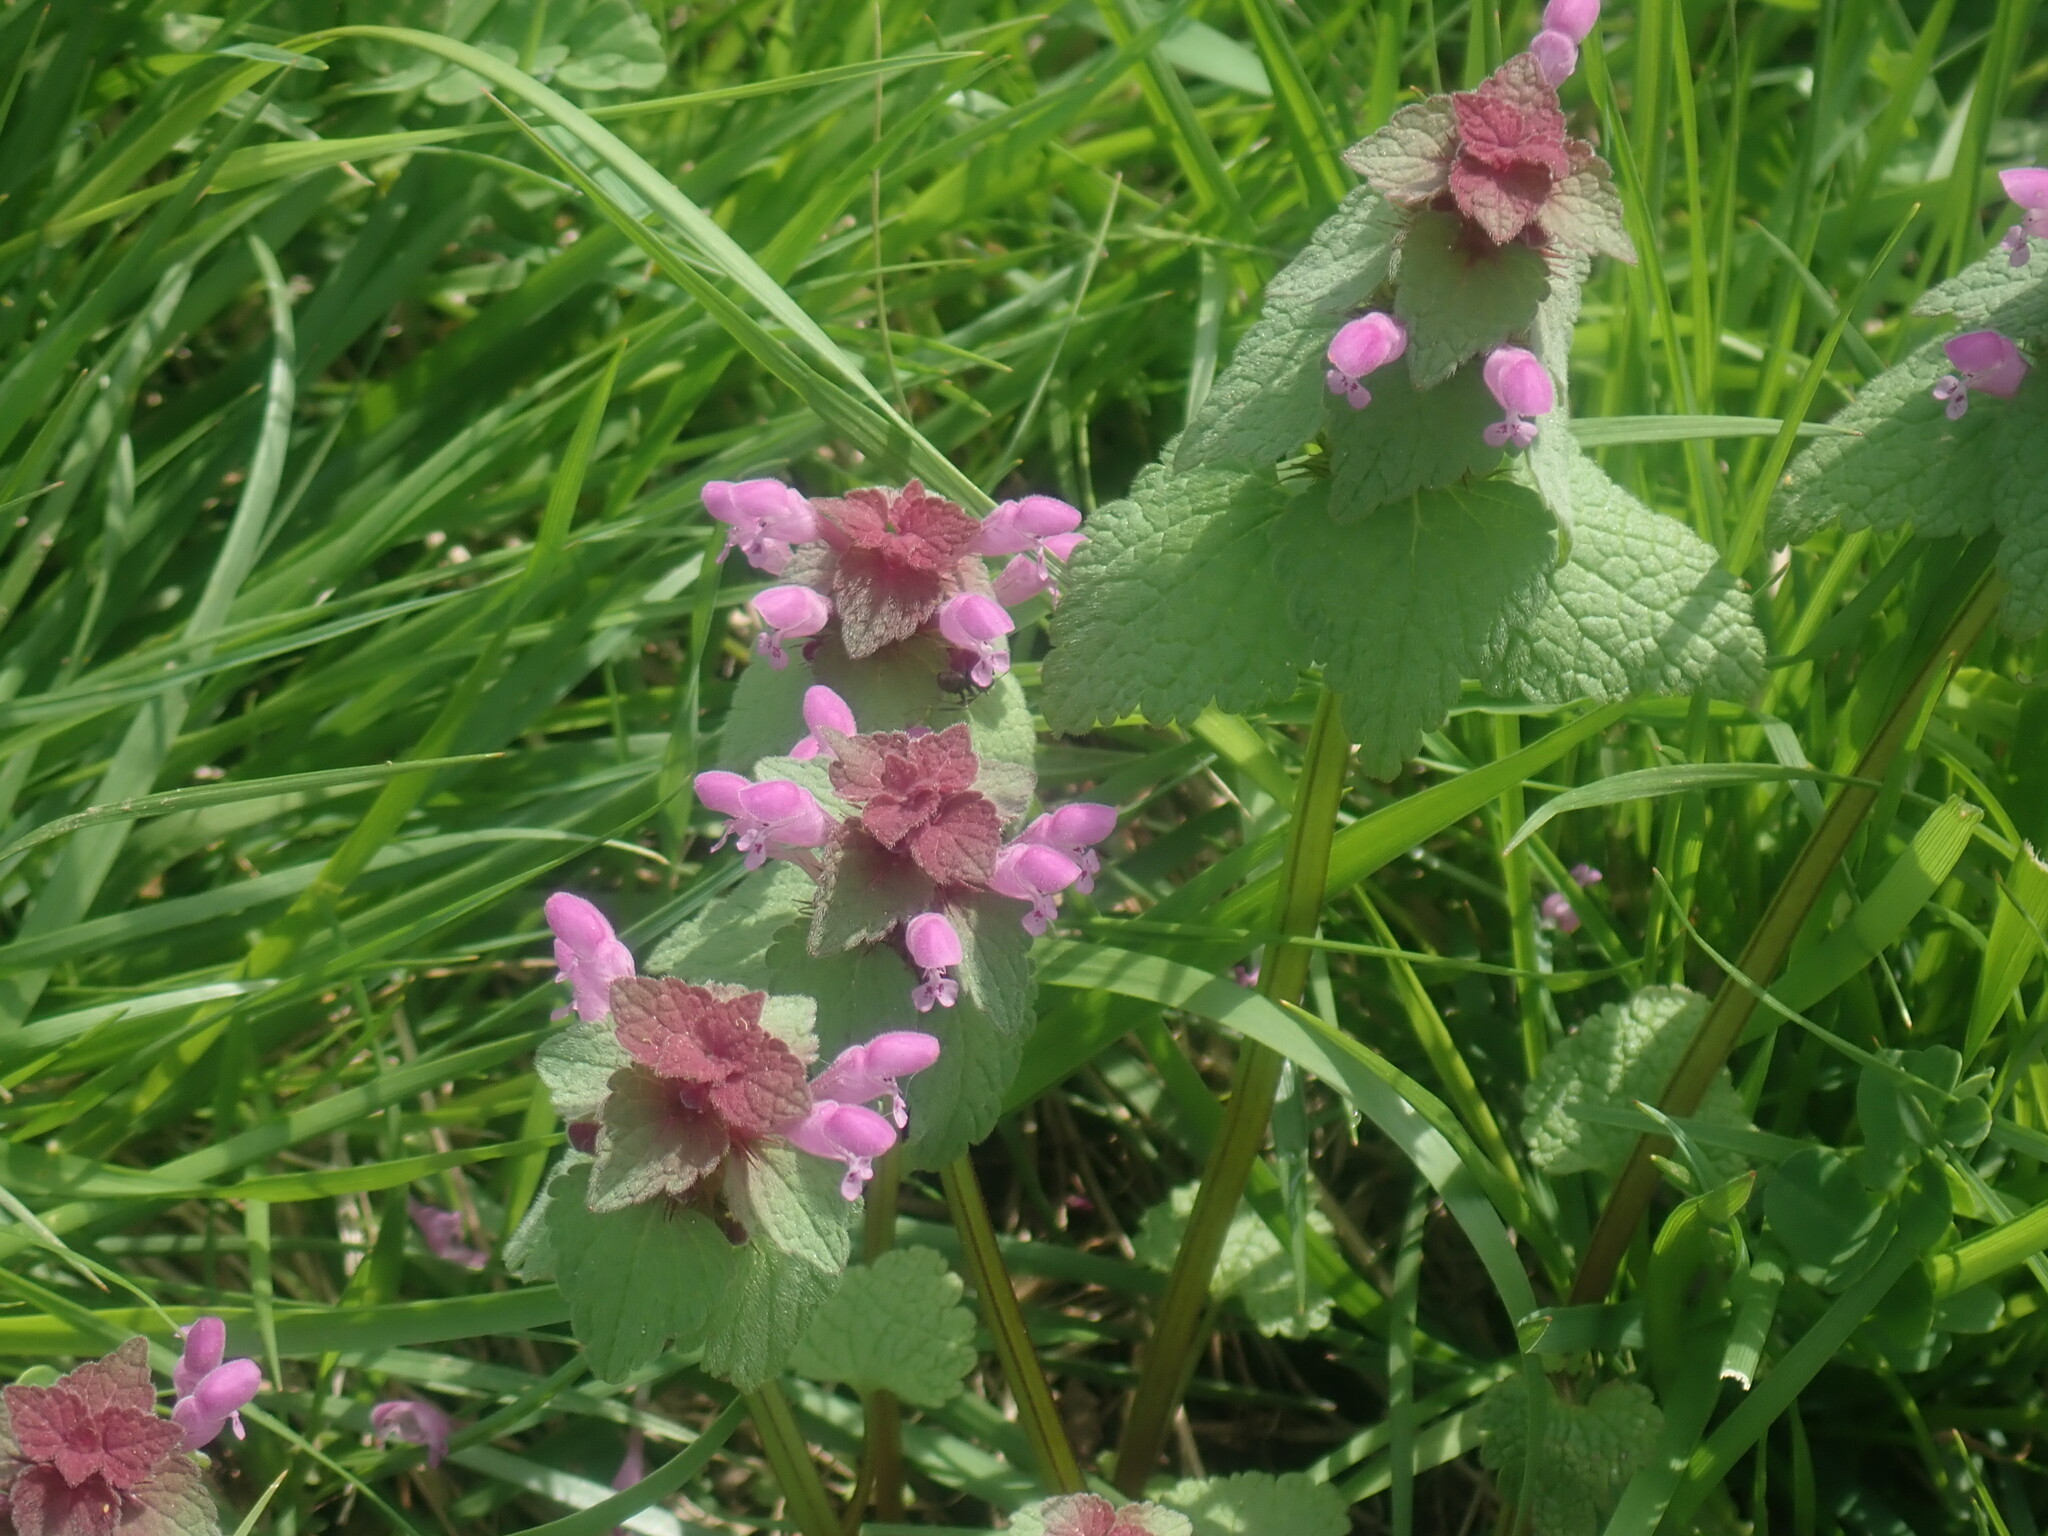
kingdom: Plantae
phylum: Tracheophyta
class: Magnoliopsida
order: Lamiales
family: Lamiaceae
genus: Lamium
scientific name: Lamium purpureum
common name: Red dead-nettle
